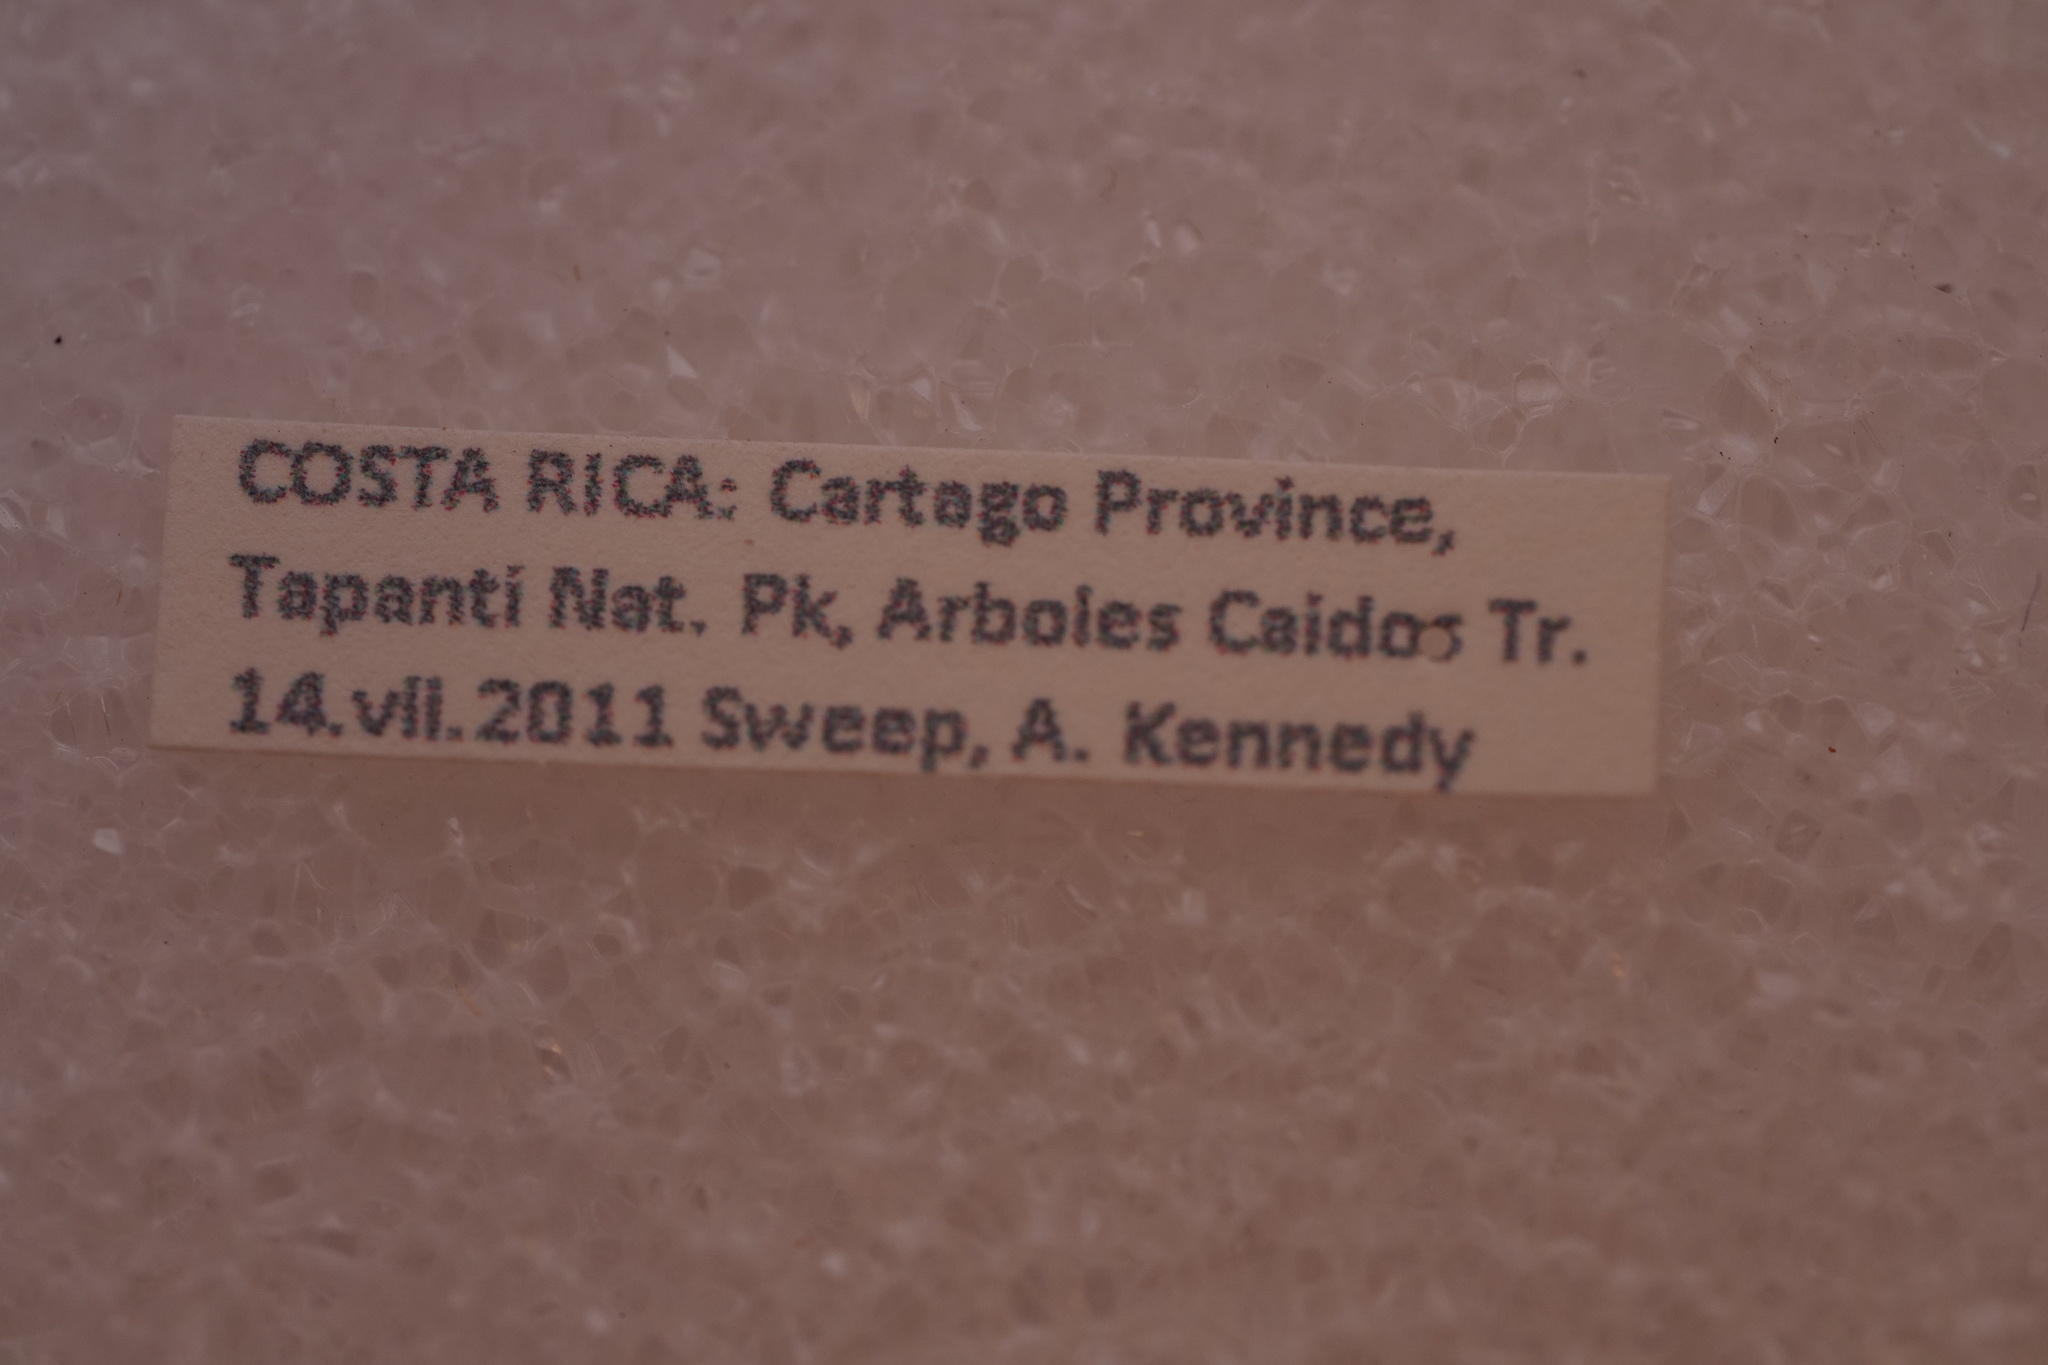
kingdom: Animalia
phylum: Arthropoda
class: Insecta
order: Coleoptera
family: Curculionidae
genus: Chauliopleurus
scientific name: Chauliopleurus viridisquamans
